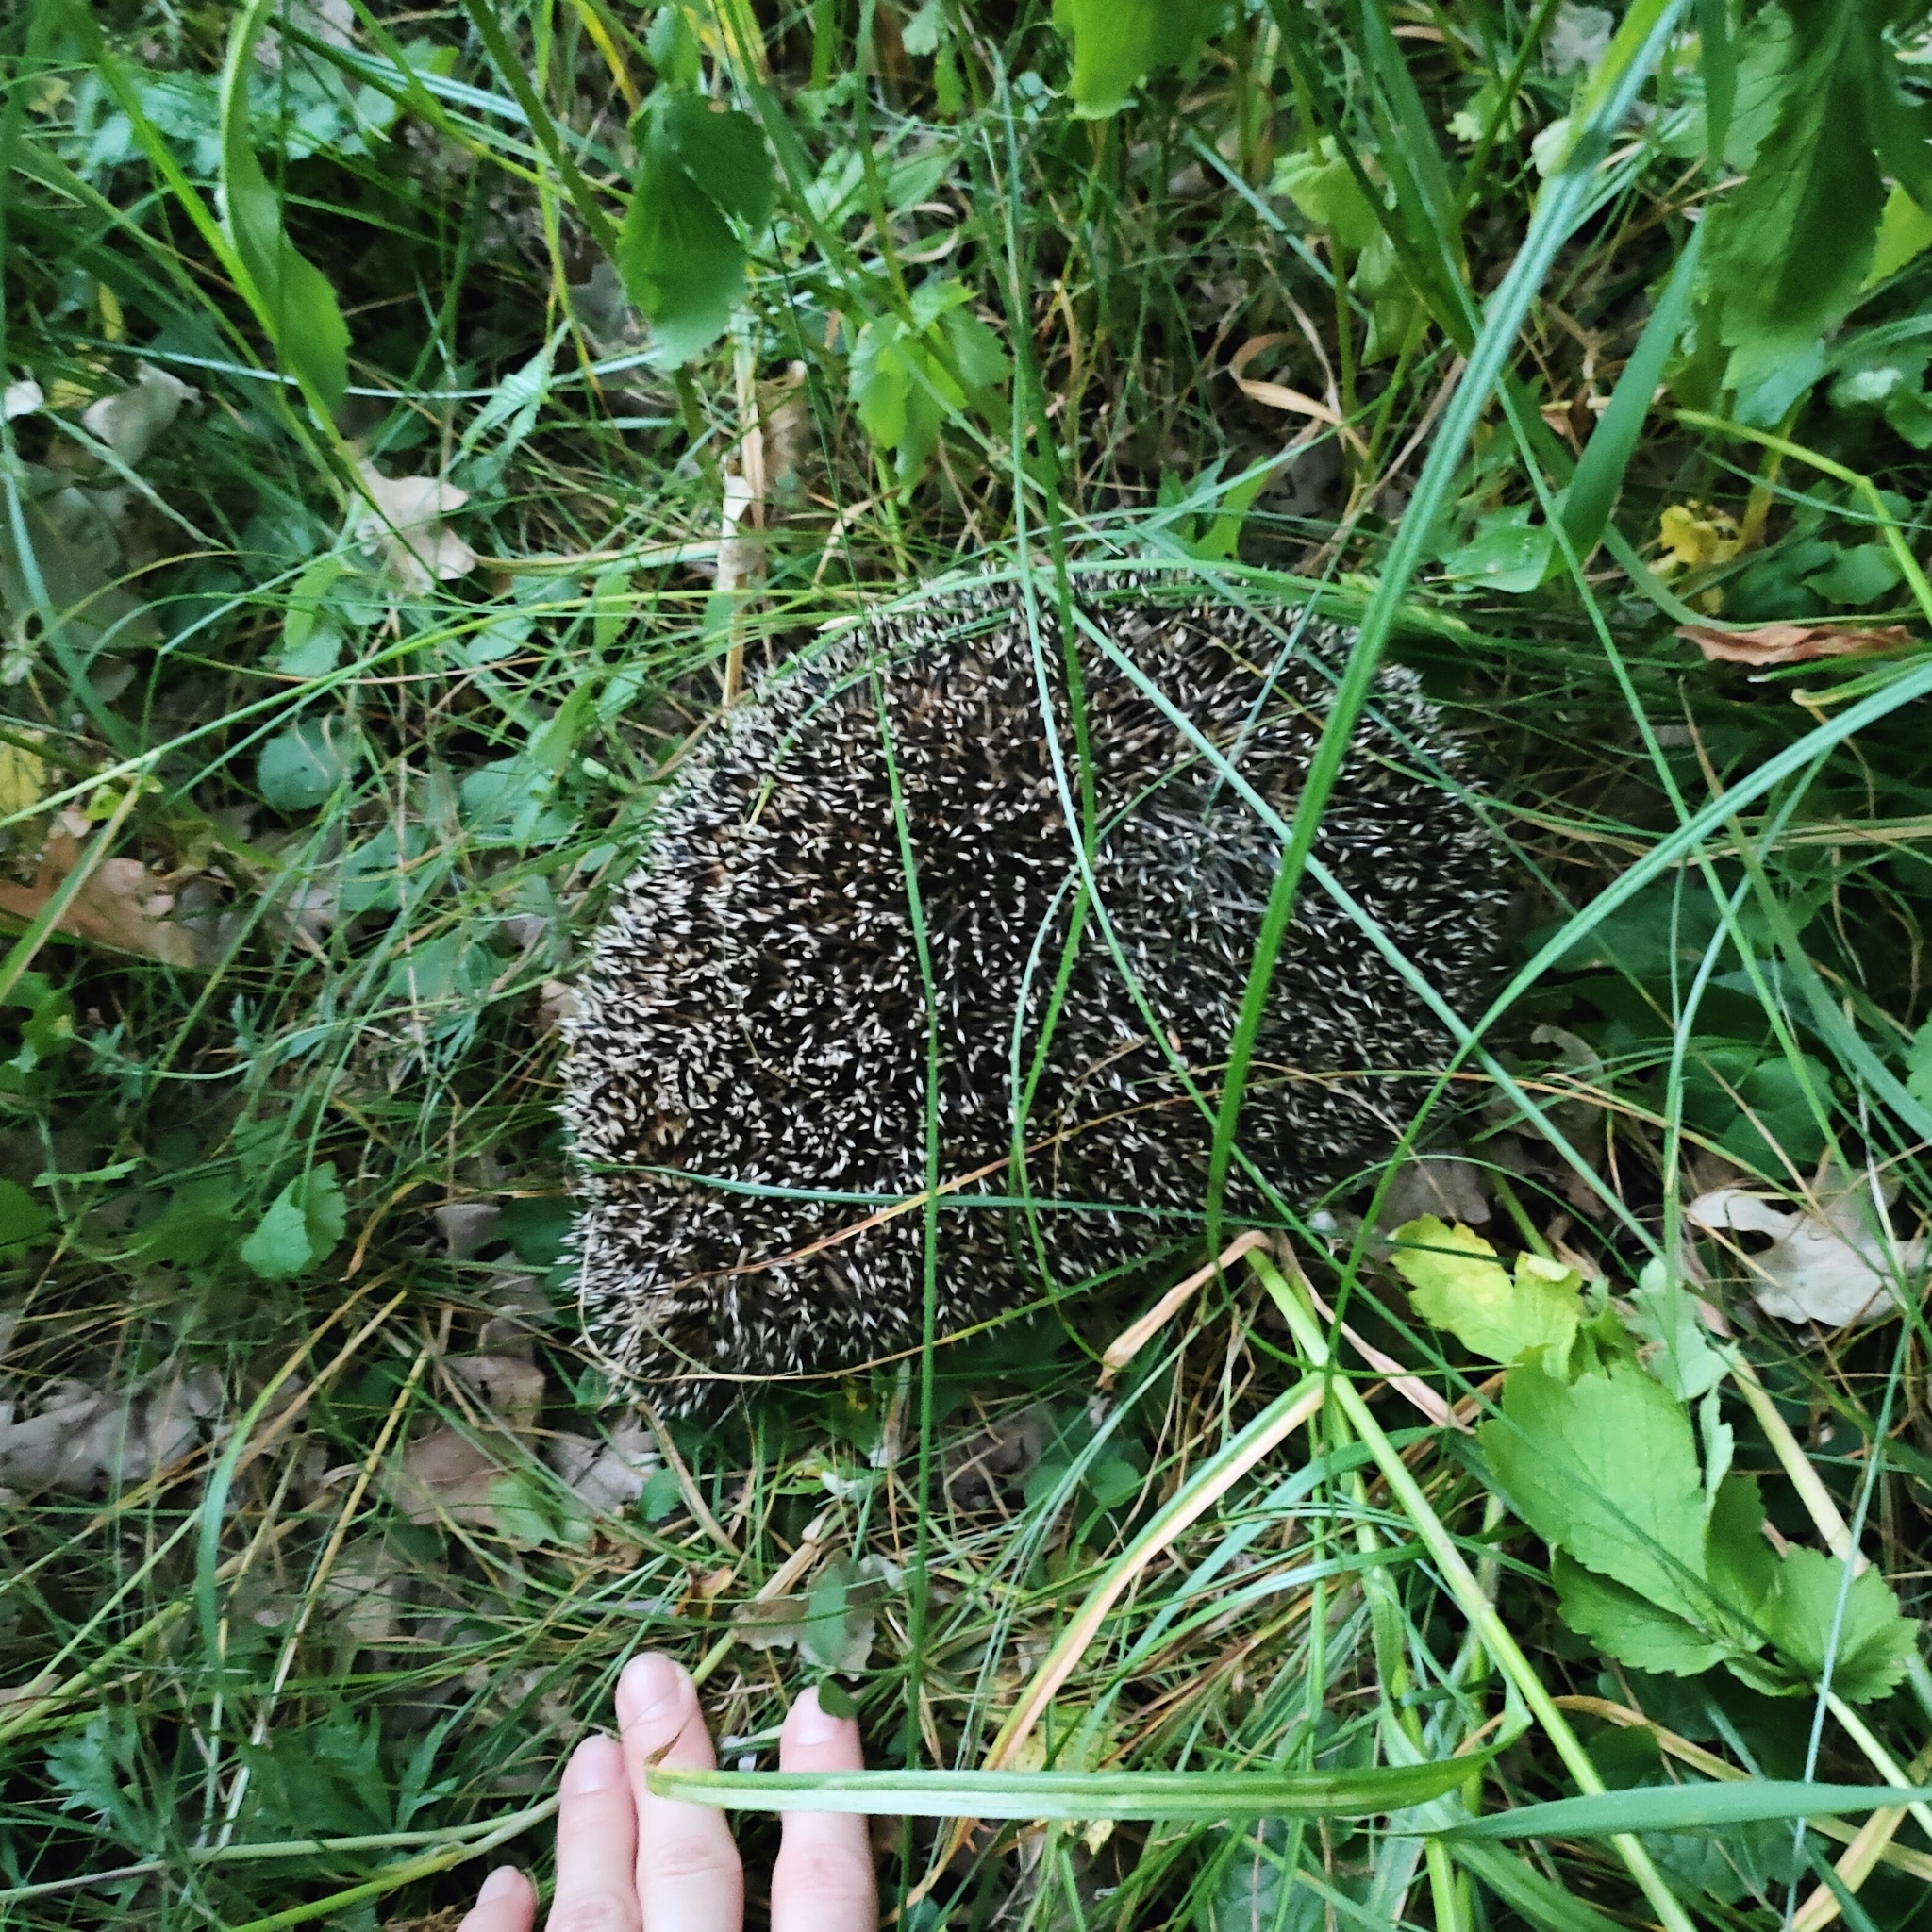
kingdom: Animalia
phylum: Chordata
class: Mammalia
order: Erinaceomorpha
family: Erinaceidae
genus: Erinaceus
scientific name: Erinaceus roumanicus
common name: Northern white-breasted hedgehog
